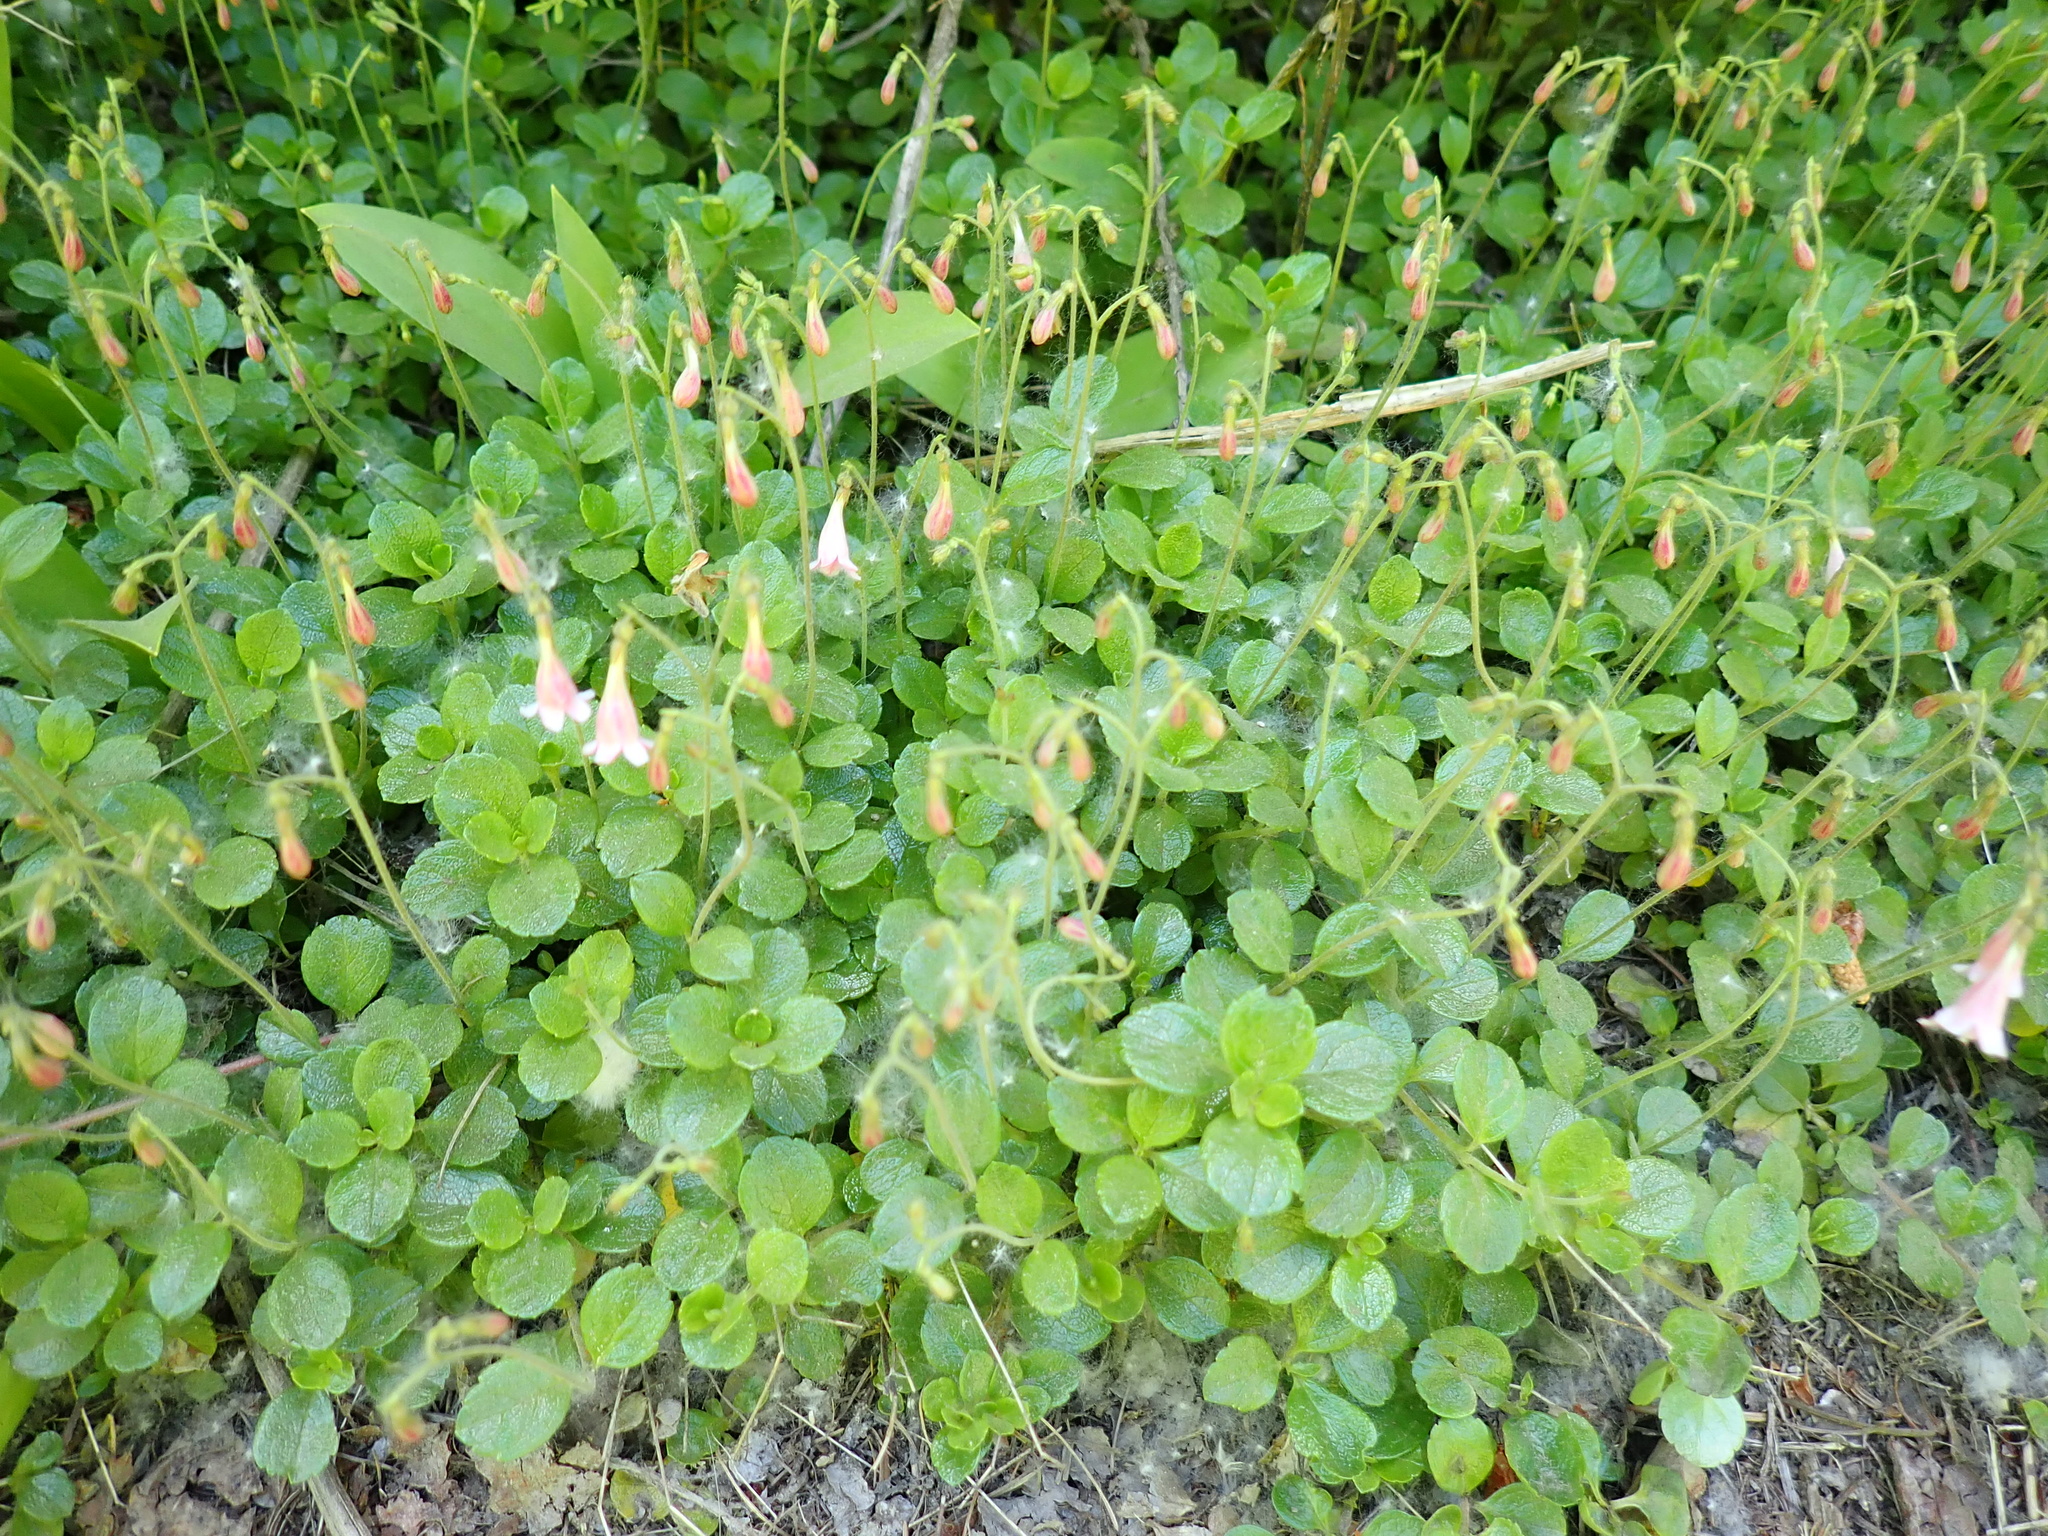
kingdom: Plantae
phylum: Tracheophyta
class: Magnoliopsida
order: Dipsacales
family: Caprifoliaceae
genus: Linnaea
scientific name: Linnaea borealis
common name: Twinflower
